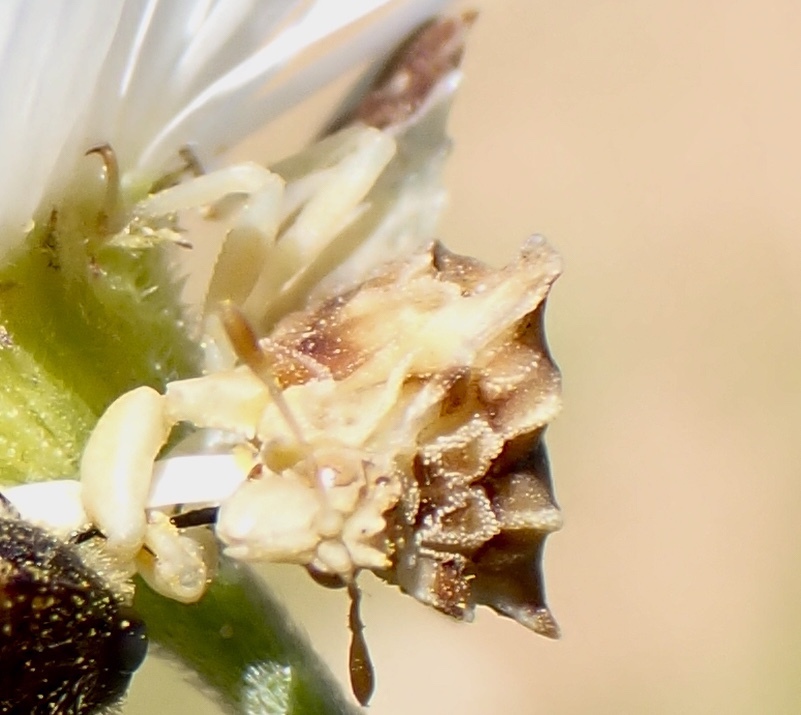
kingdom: Animalia
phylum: Arthropoda
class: Insecta
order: Hemiptera
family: Reduviidae
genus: Phymata
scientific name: Phymata fasciata
